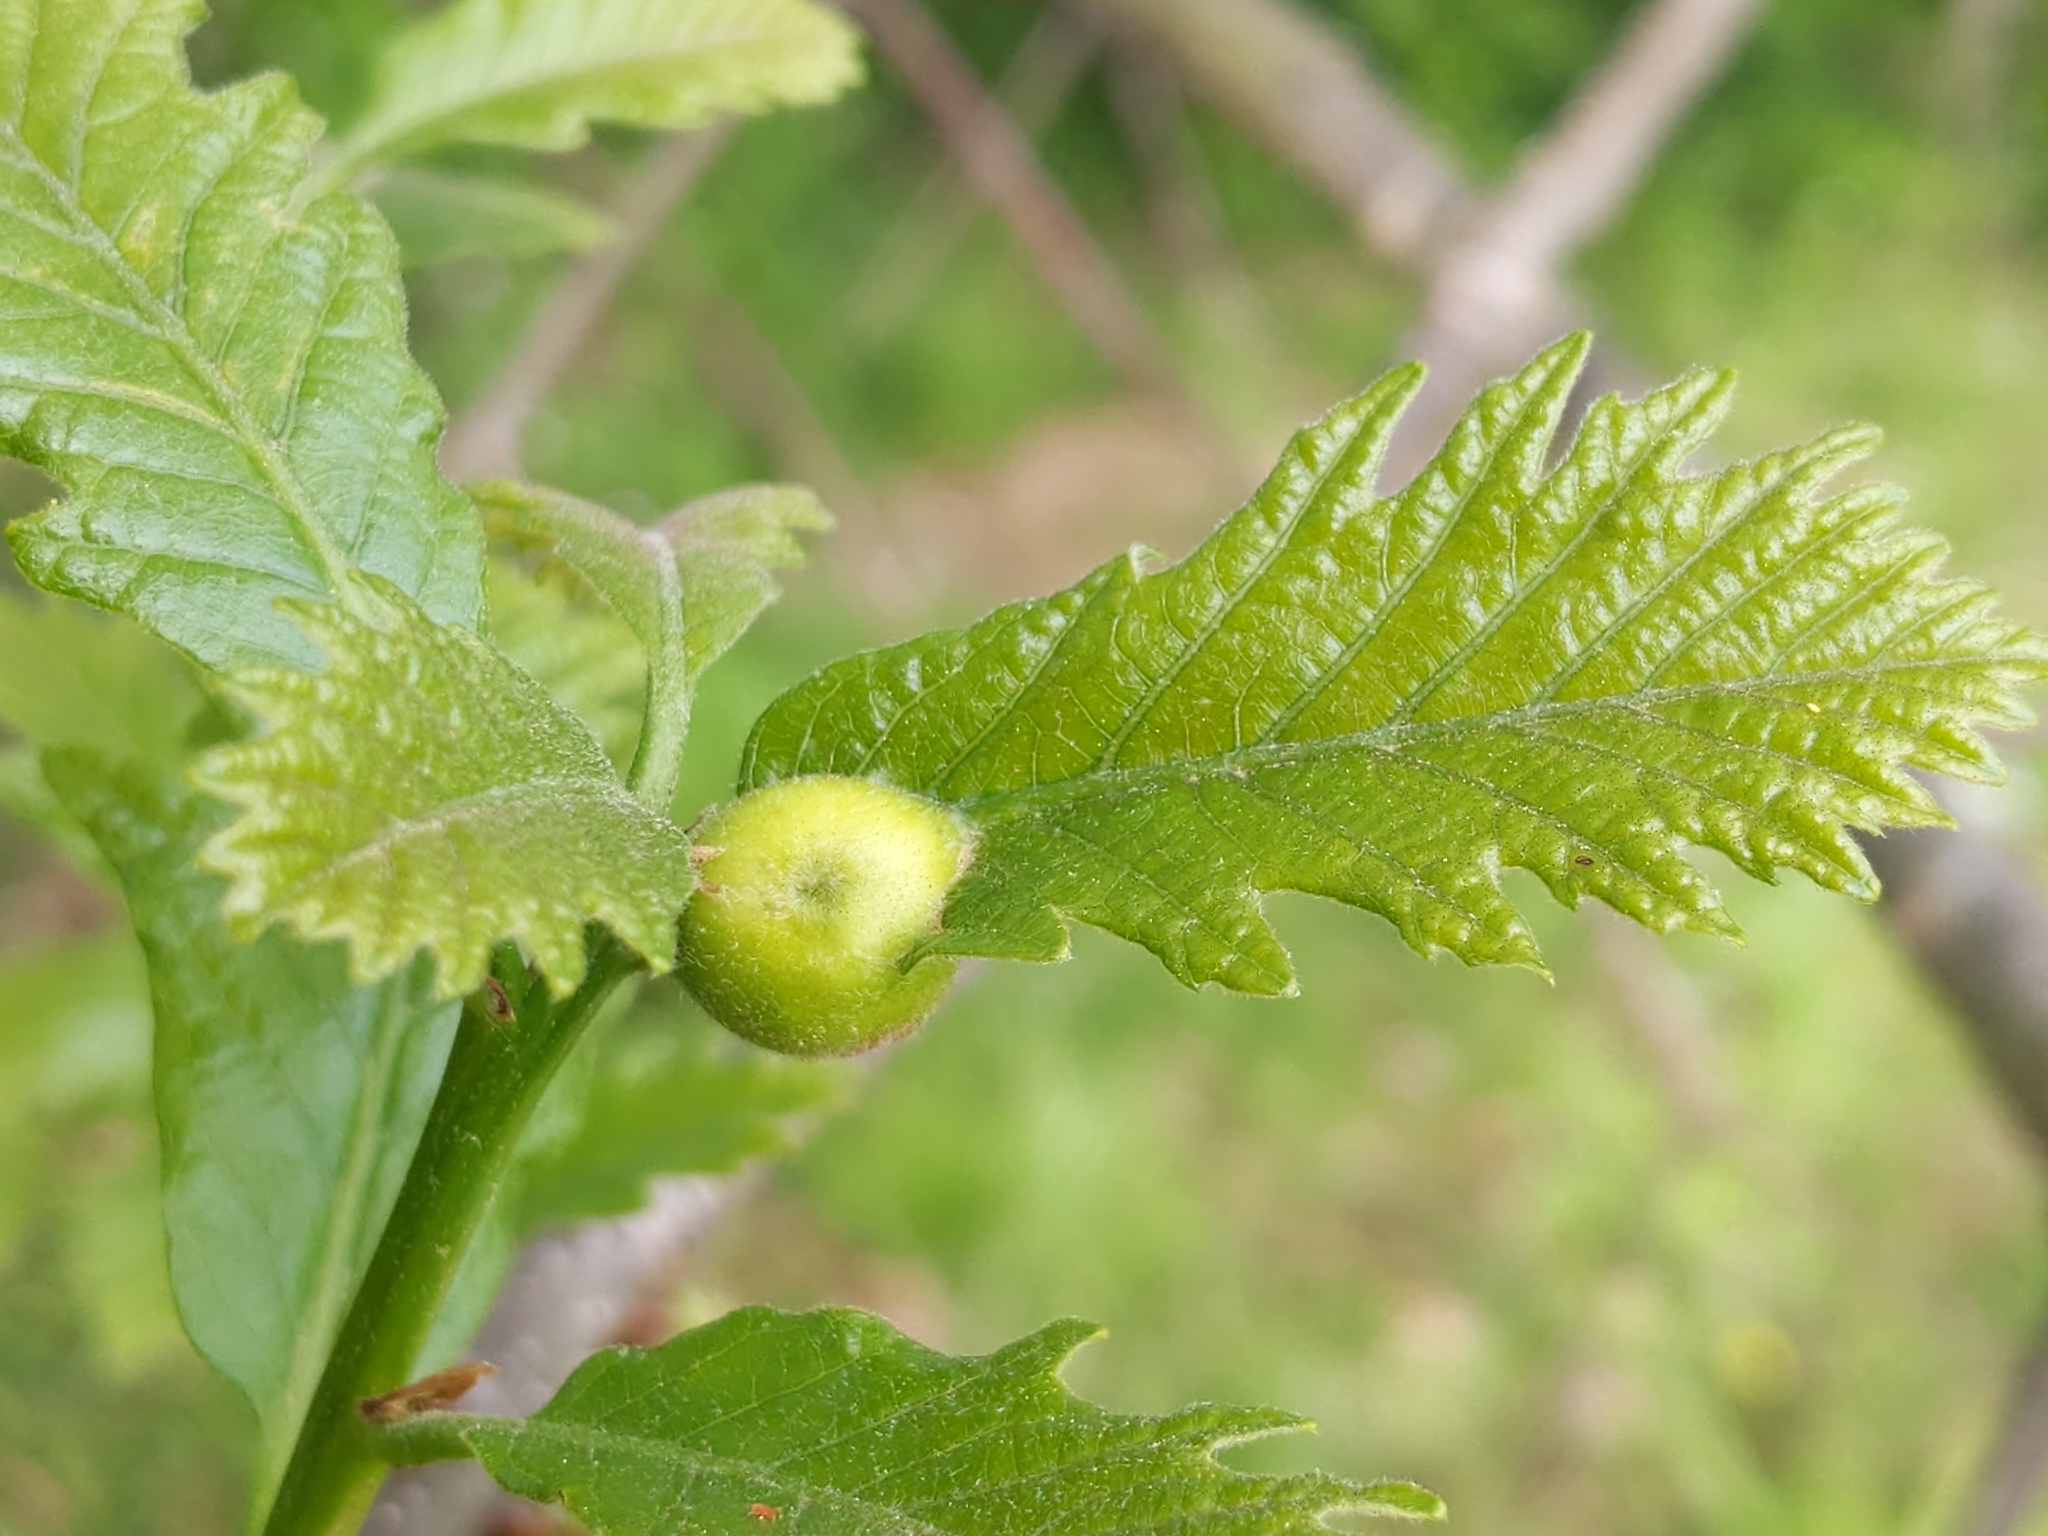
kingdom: Animalia
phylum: Arthropoda
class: Insecta
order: Hymenoptera
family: Cynipidae
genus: Andricus
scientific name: Andricus
